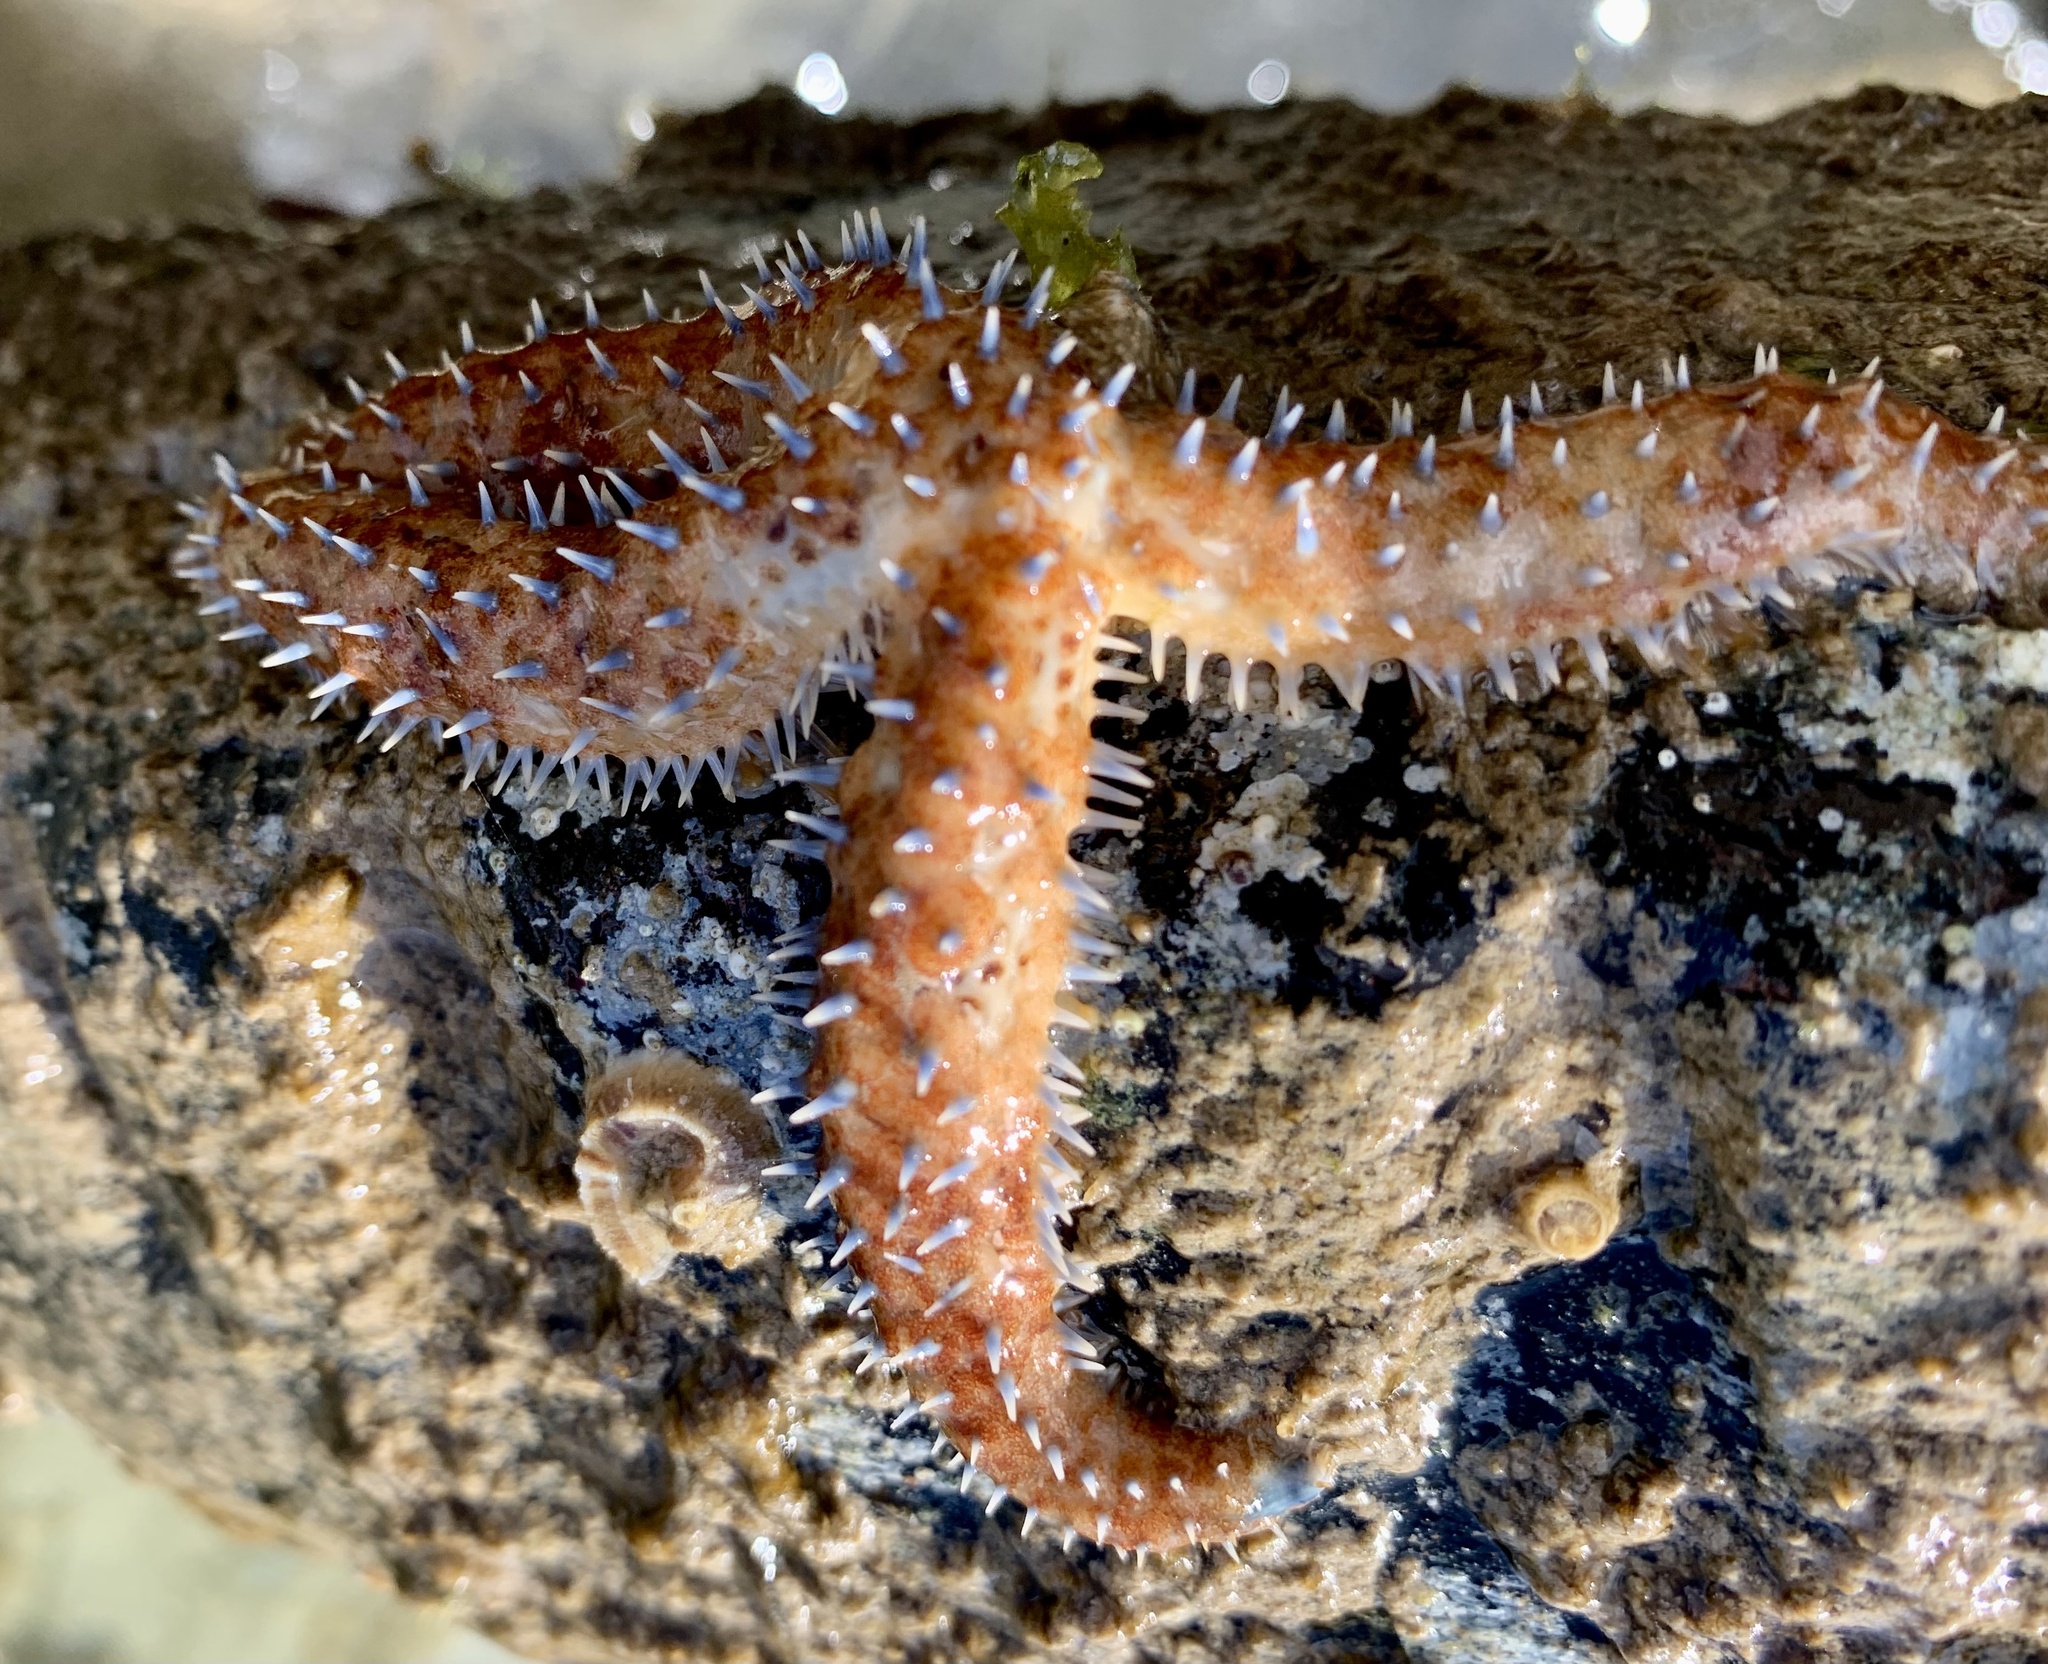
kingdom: Animalia
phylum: Echinodermata
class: Asteroidea
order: Forcipulatida
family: Asteriidae
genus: Coscinasterias
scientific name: Coscinasterias tenuispina
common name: Blue spiny starfish
